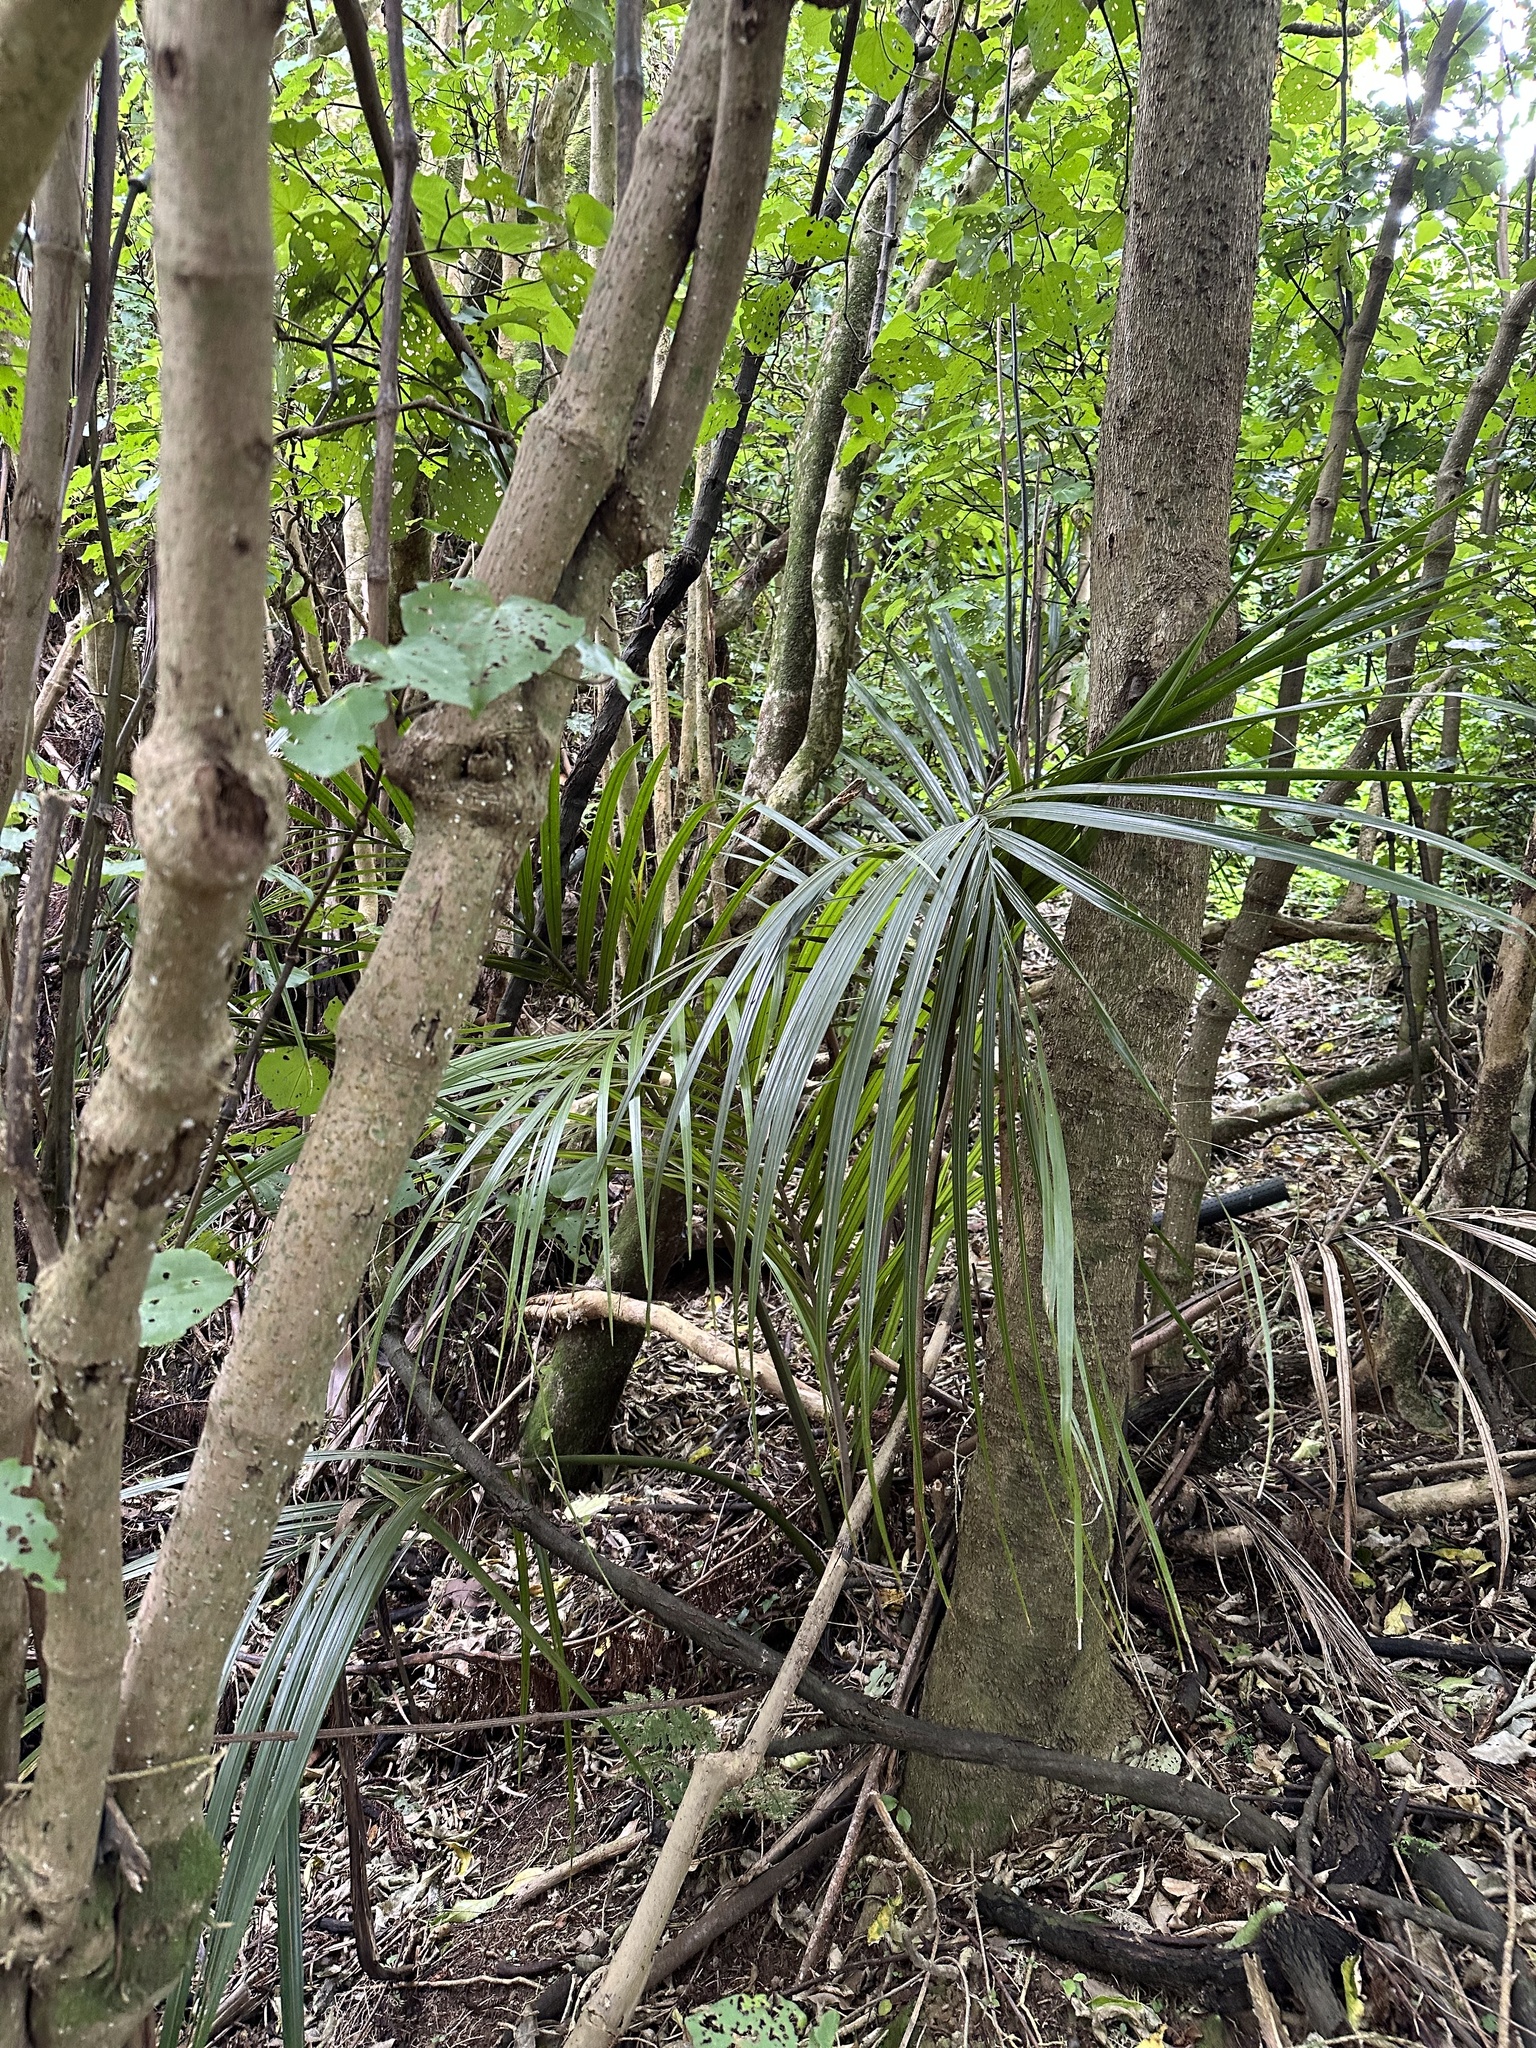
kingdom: Plantae
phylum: Tracheophyta
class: Liliopsida
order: Arecales
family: Arecaceae
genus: Rhopalostylis
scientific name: Rhopalostylis sapida
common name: Feather-duster palm
